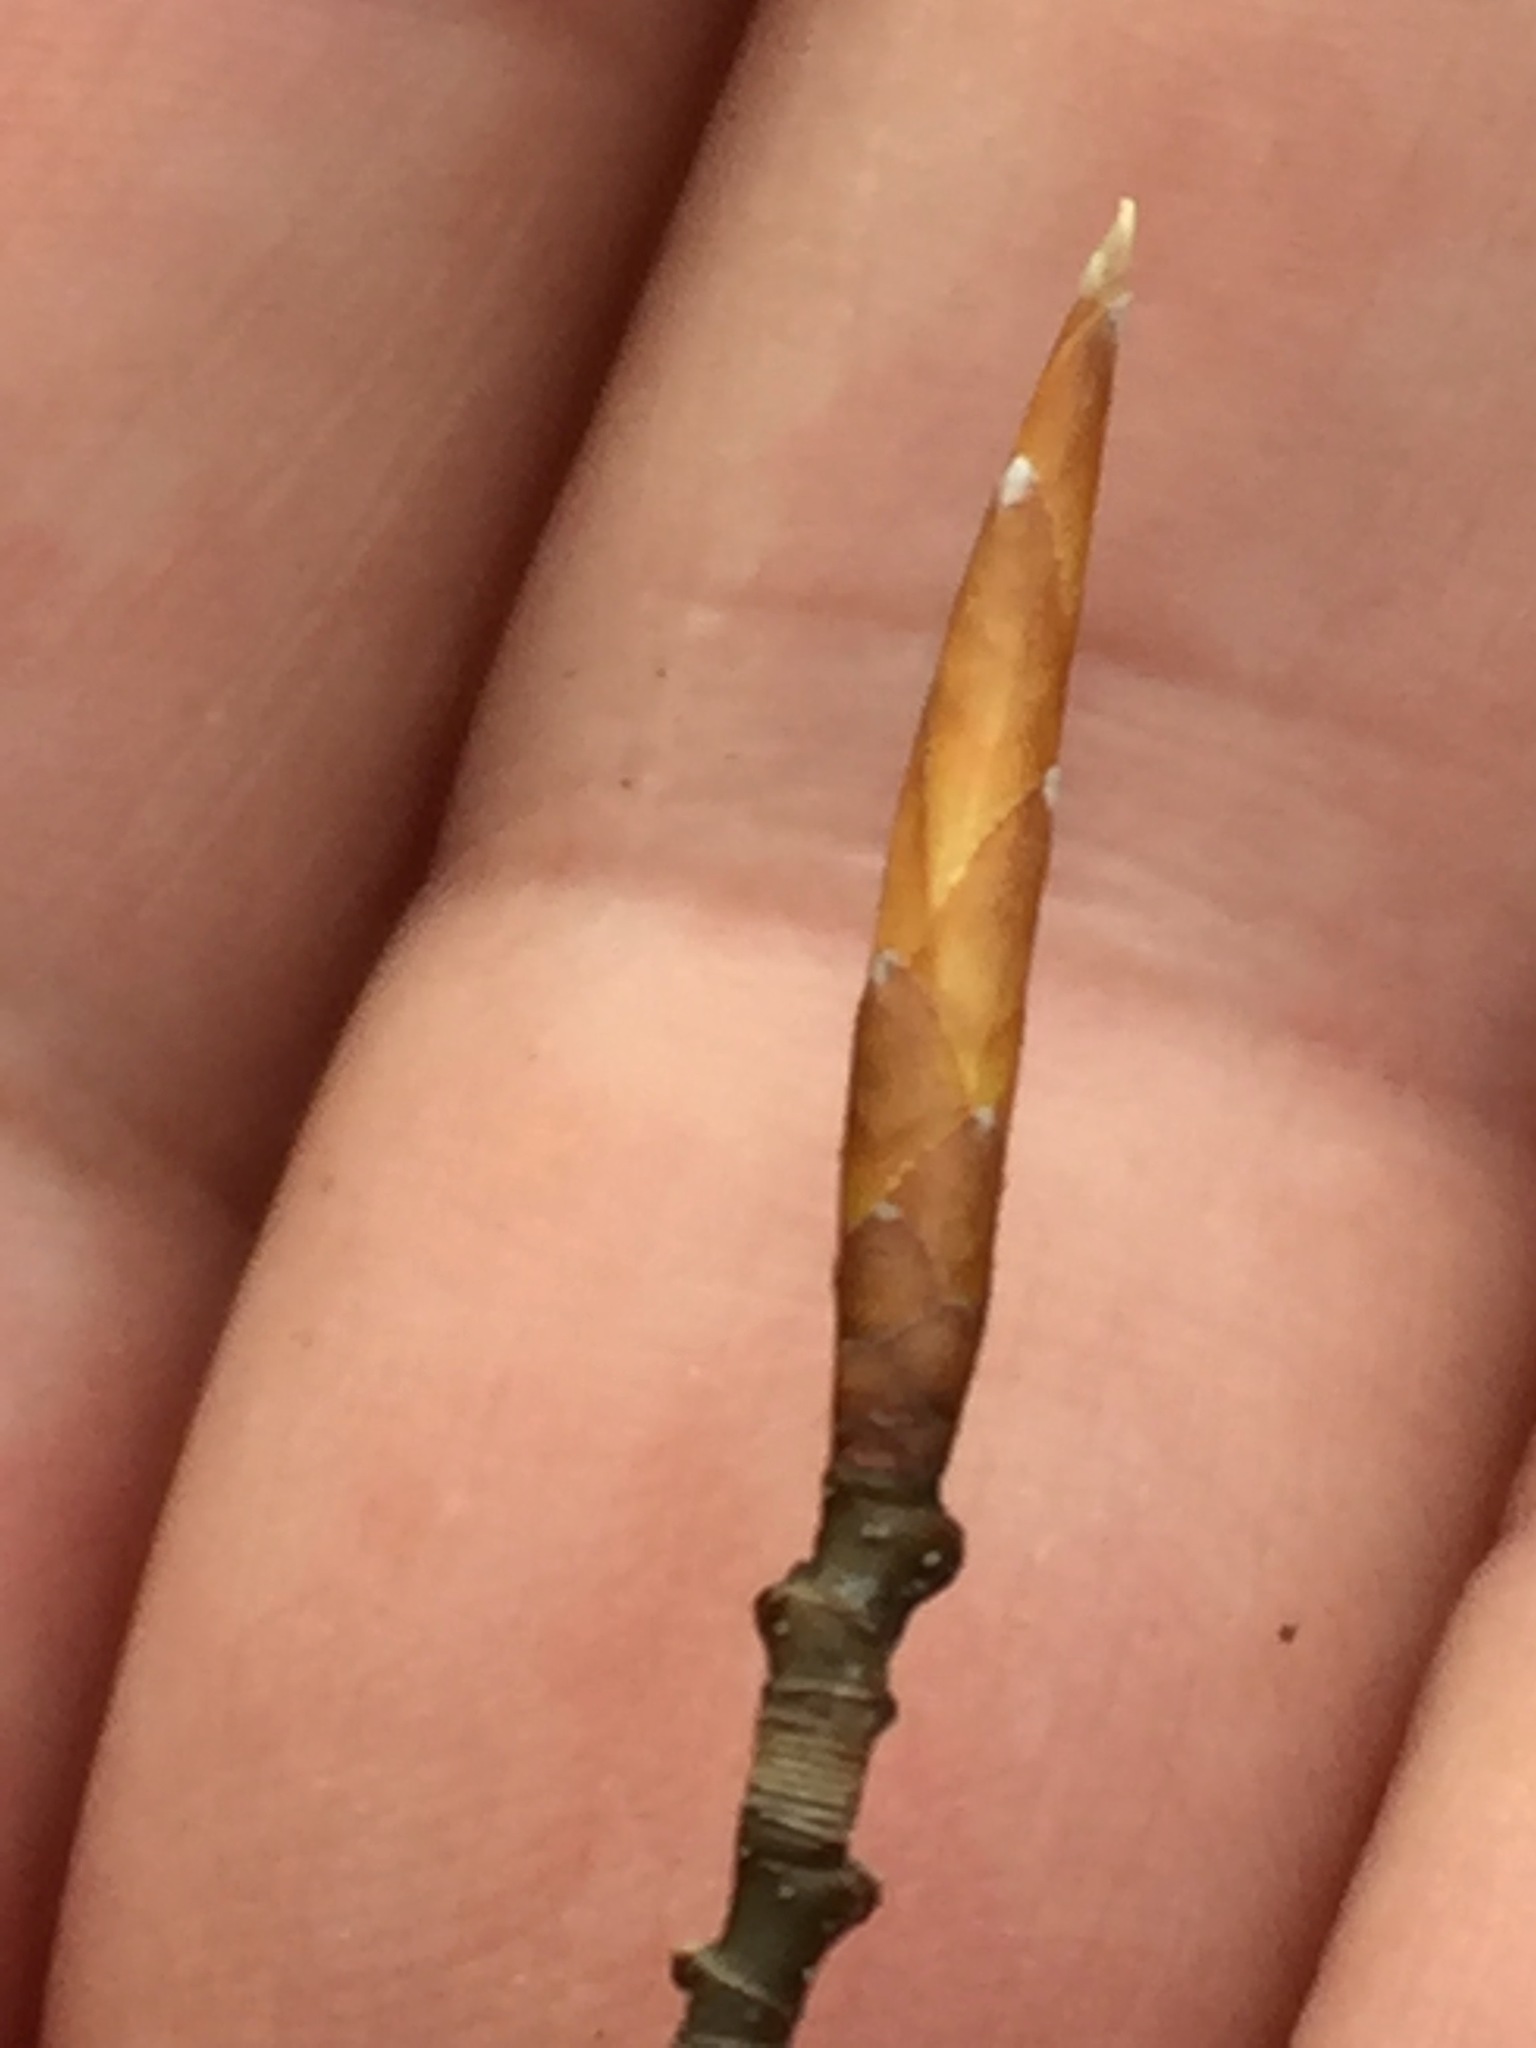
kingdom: Plantae
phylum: Tracheophyta
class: Magnoliopsida
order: Fagales
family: Fagaceae
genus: Fagus
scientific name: Fagus grandifolia
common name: American beech
